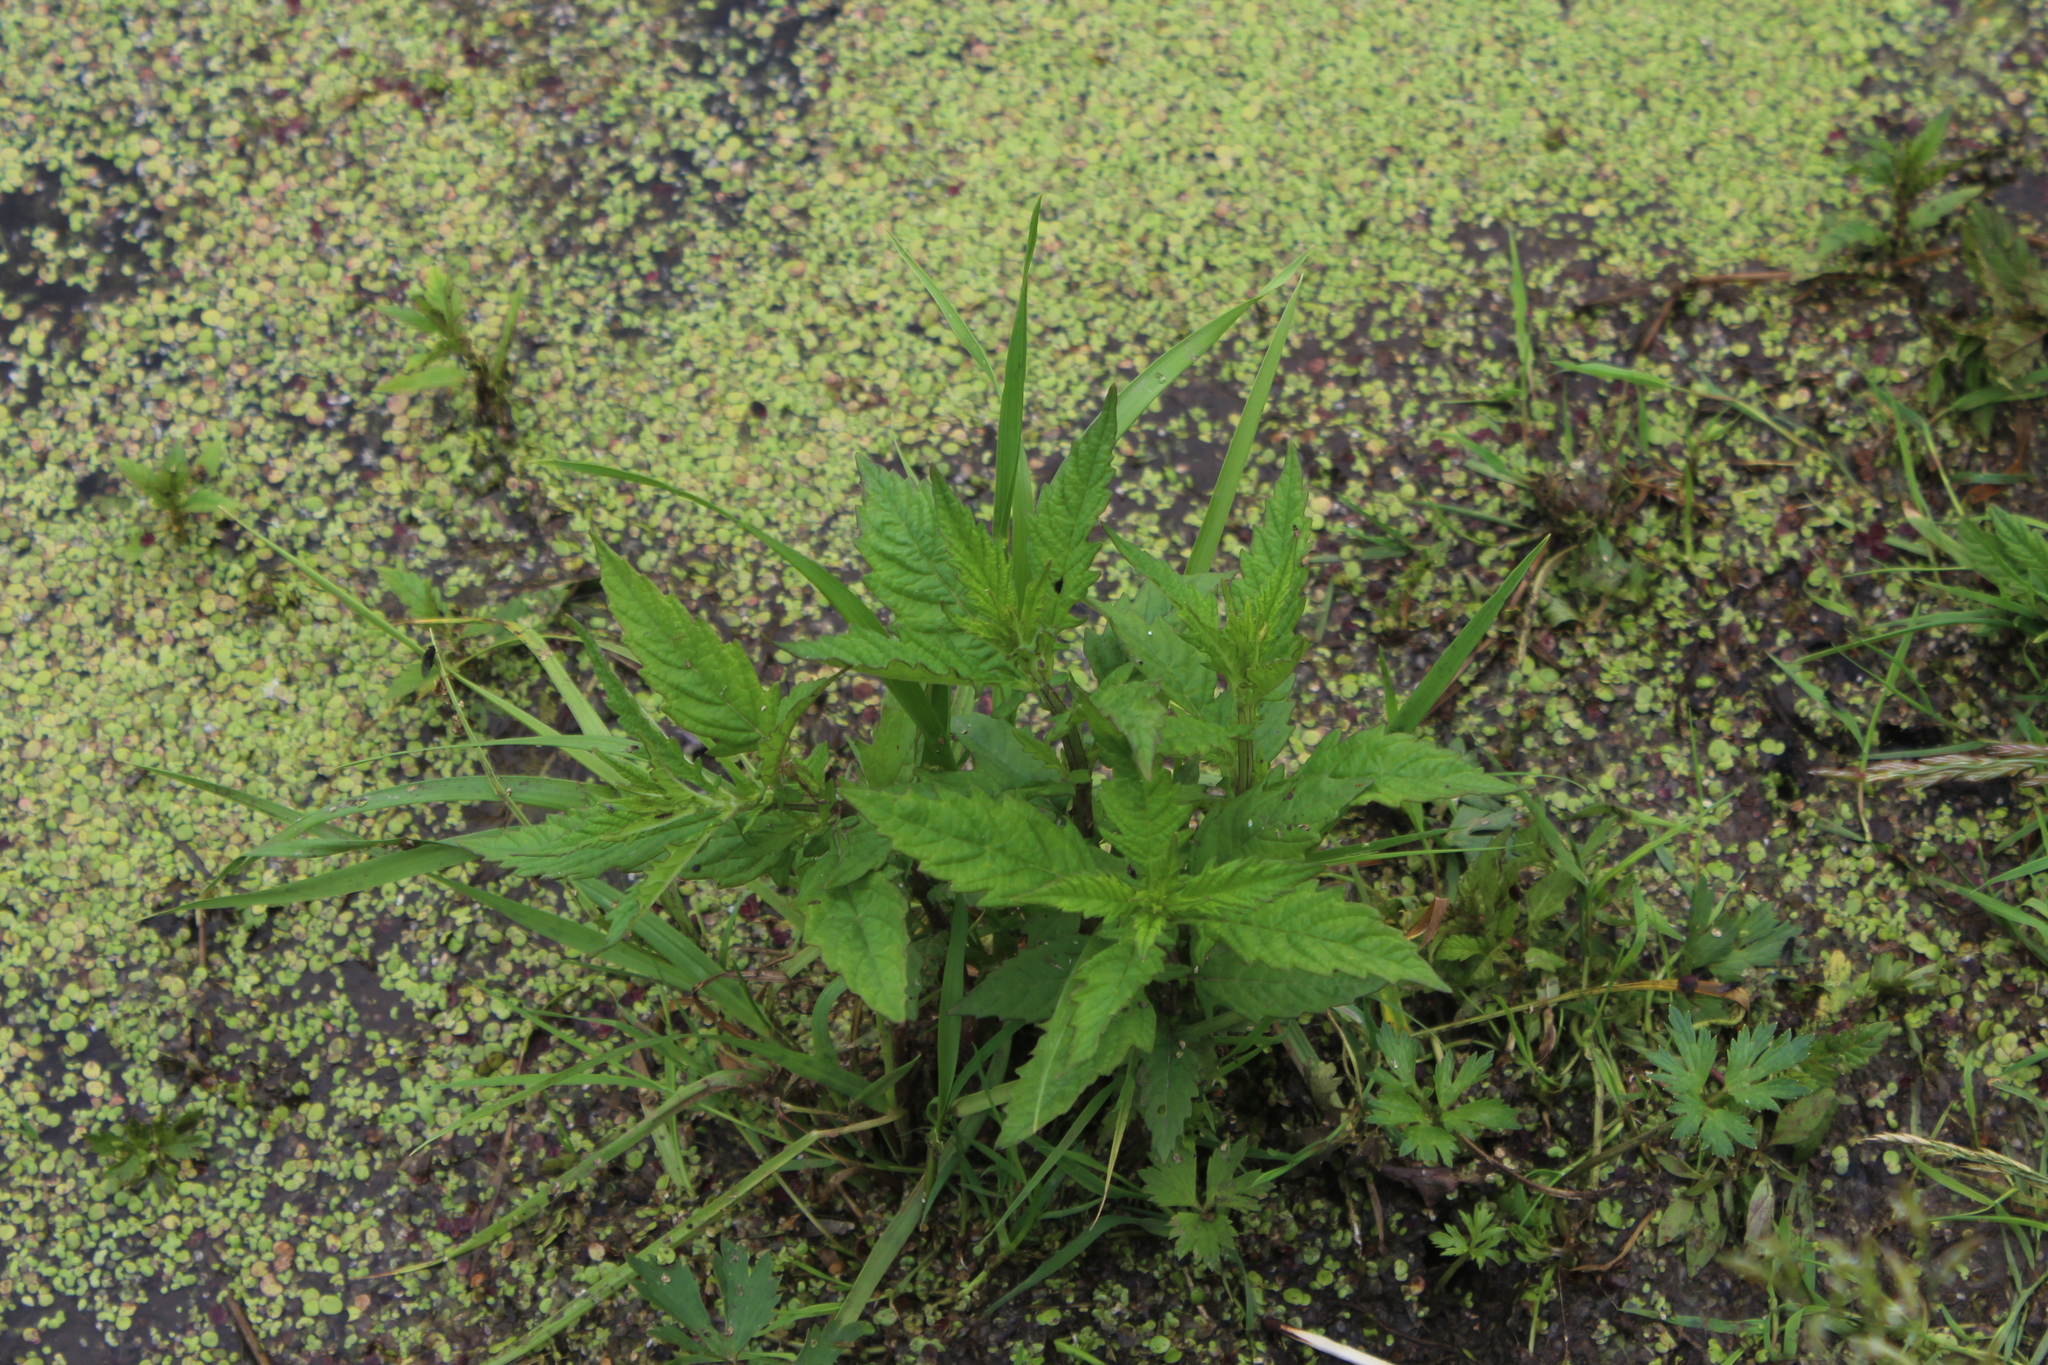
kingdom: Plantae
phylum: Tracheophyta
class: Magnoliopsida
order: Lamiales
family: Lamiaceae
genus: Lycopus
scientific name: Lycopus europaeus
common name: European bugleweed
